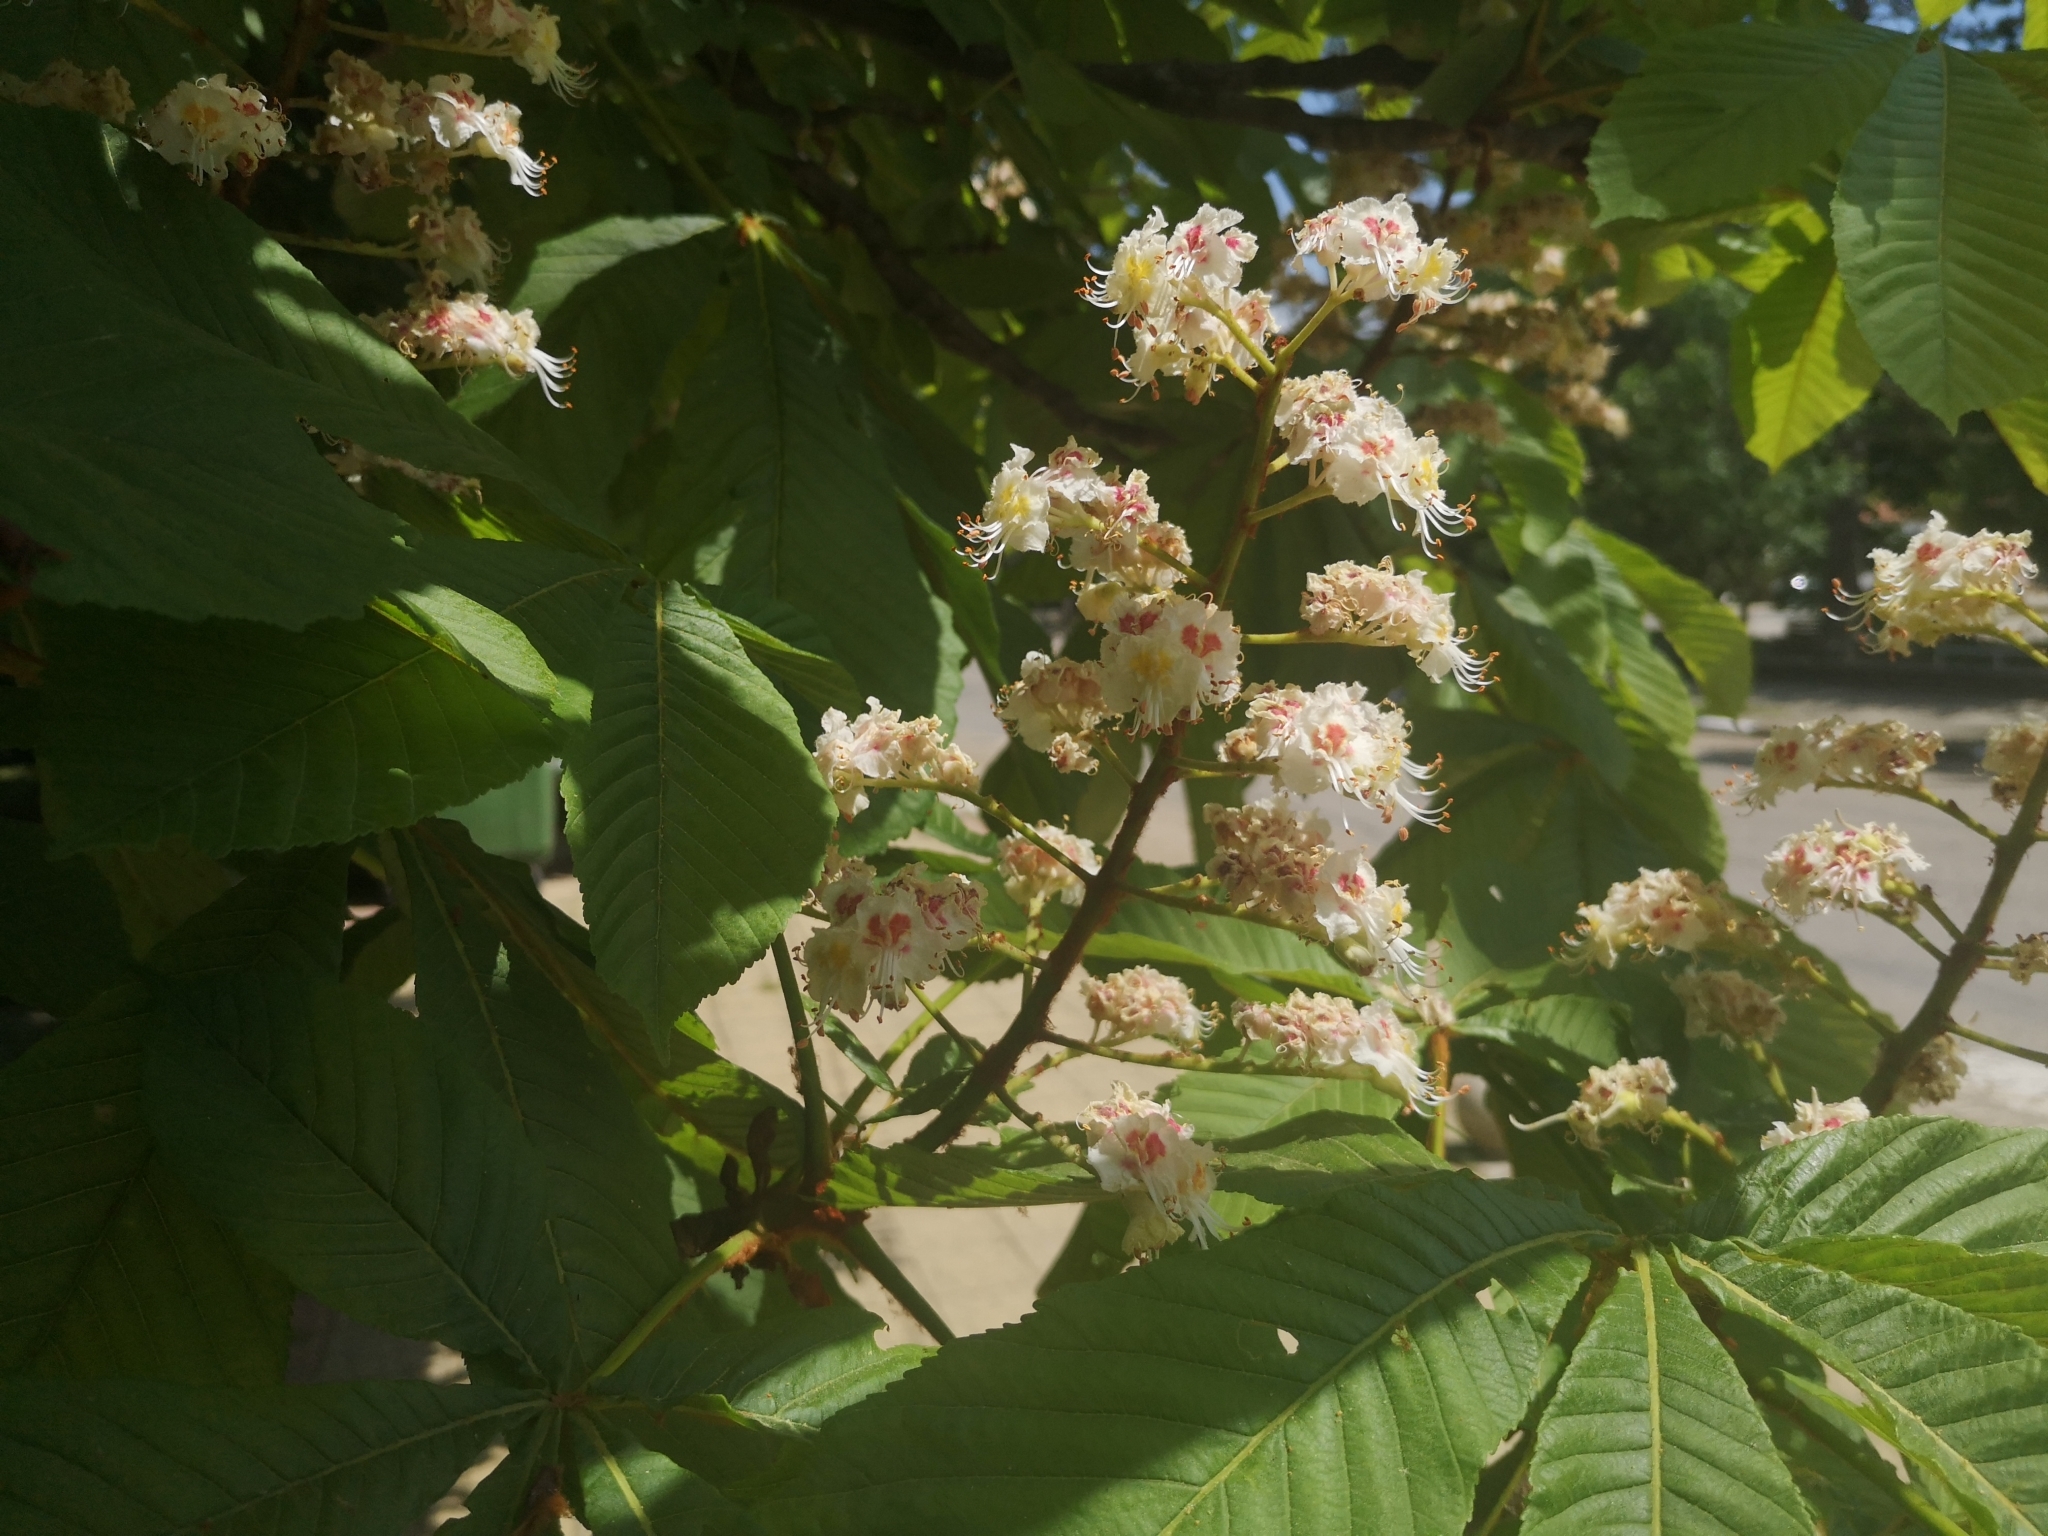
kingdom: Plantae
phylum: Tracheophyta
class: Magnoliopsida
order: Sapindales
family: Sapindaceae
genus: Aesculus
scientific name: Aesculus hippocastanum
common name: Horse-chestnut
